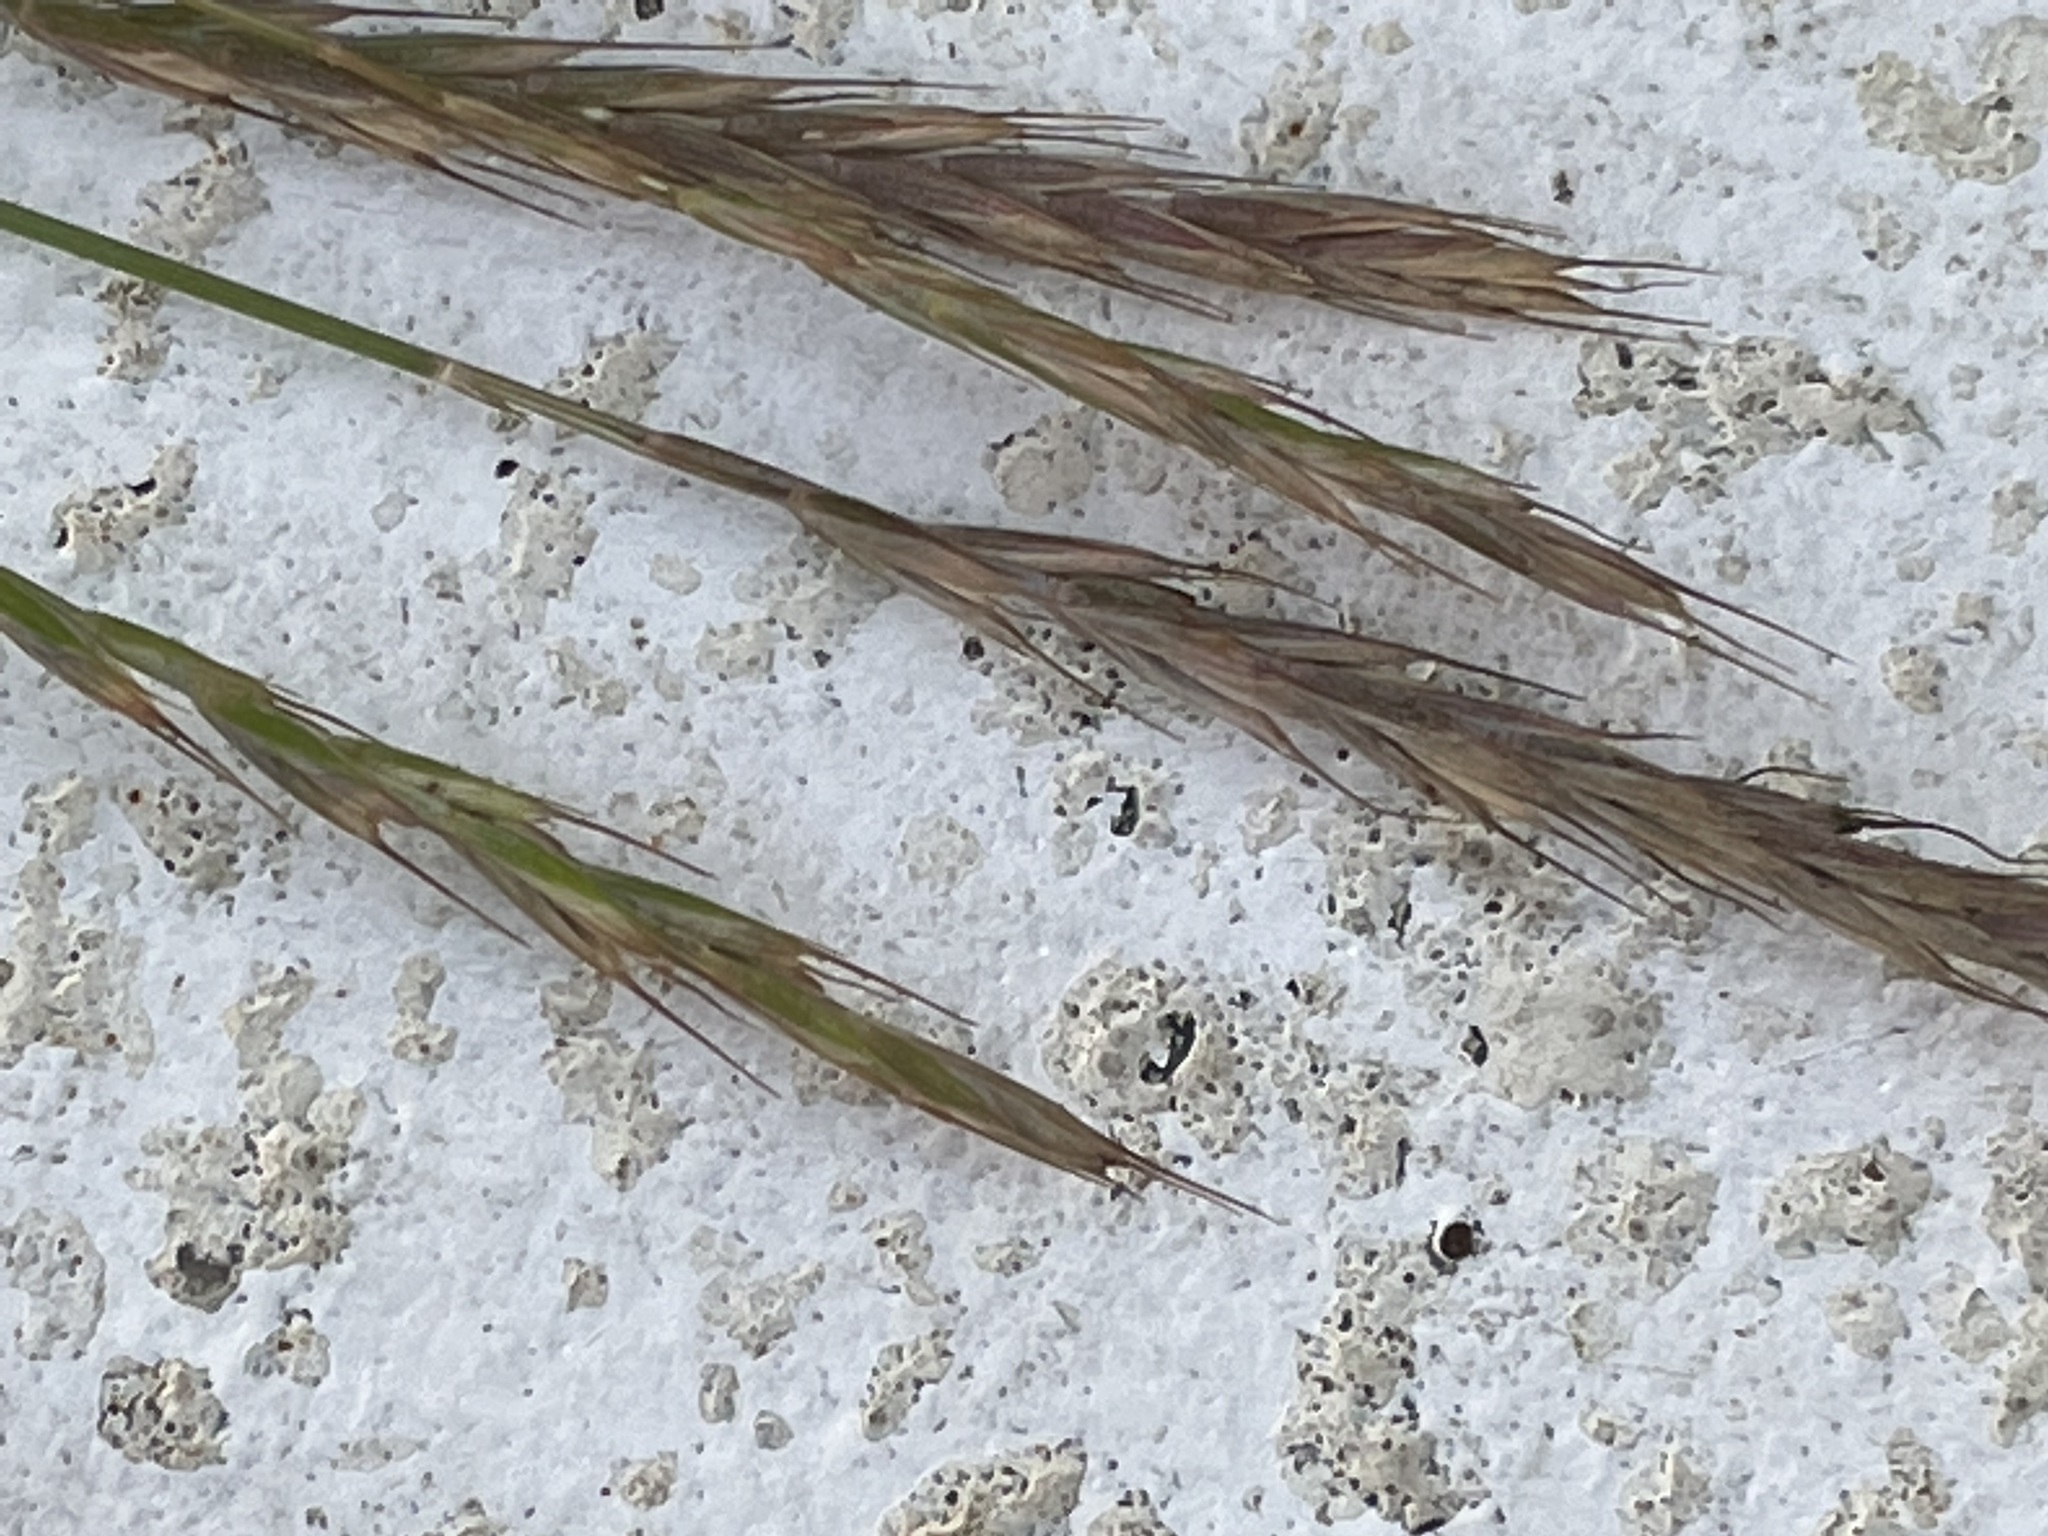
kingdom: Plantae
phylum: Tracheophyta
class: Liliopsida
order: Poales
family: Poaceae
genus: Elymus
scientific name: Elymus repens
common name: Quackgrass
